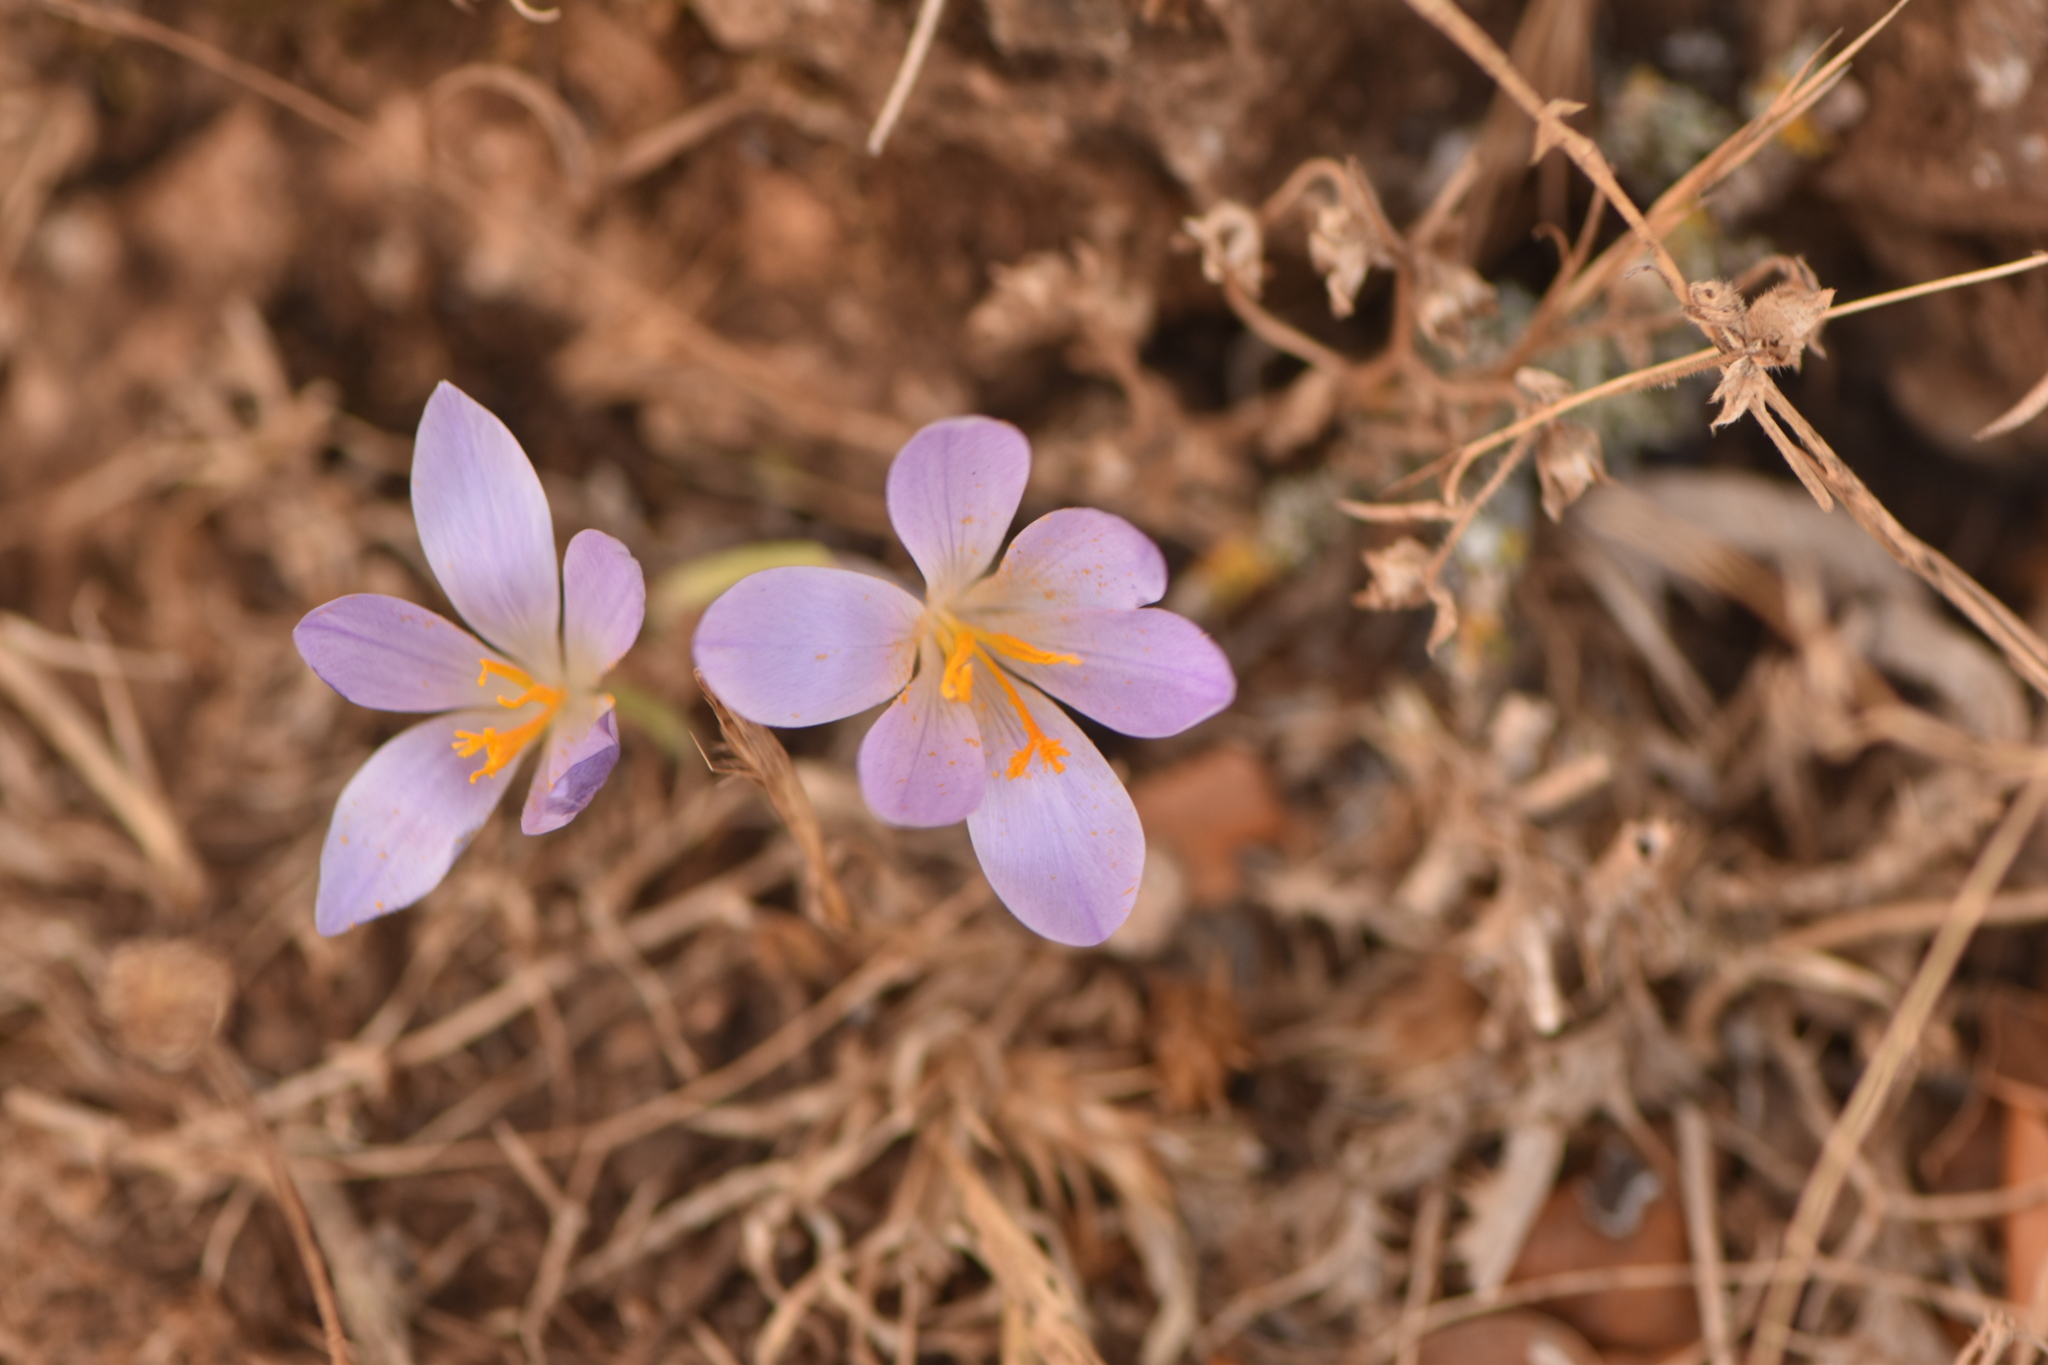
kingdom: Plantae
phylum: Tracheophyta
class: Liliopsida
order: Asparagales
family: Iridaceae
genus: Crocus
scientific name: Crocus serotinus
